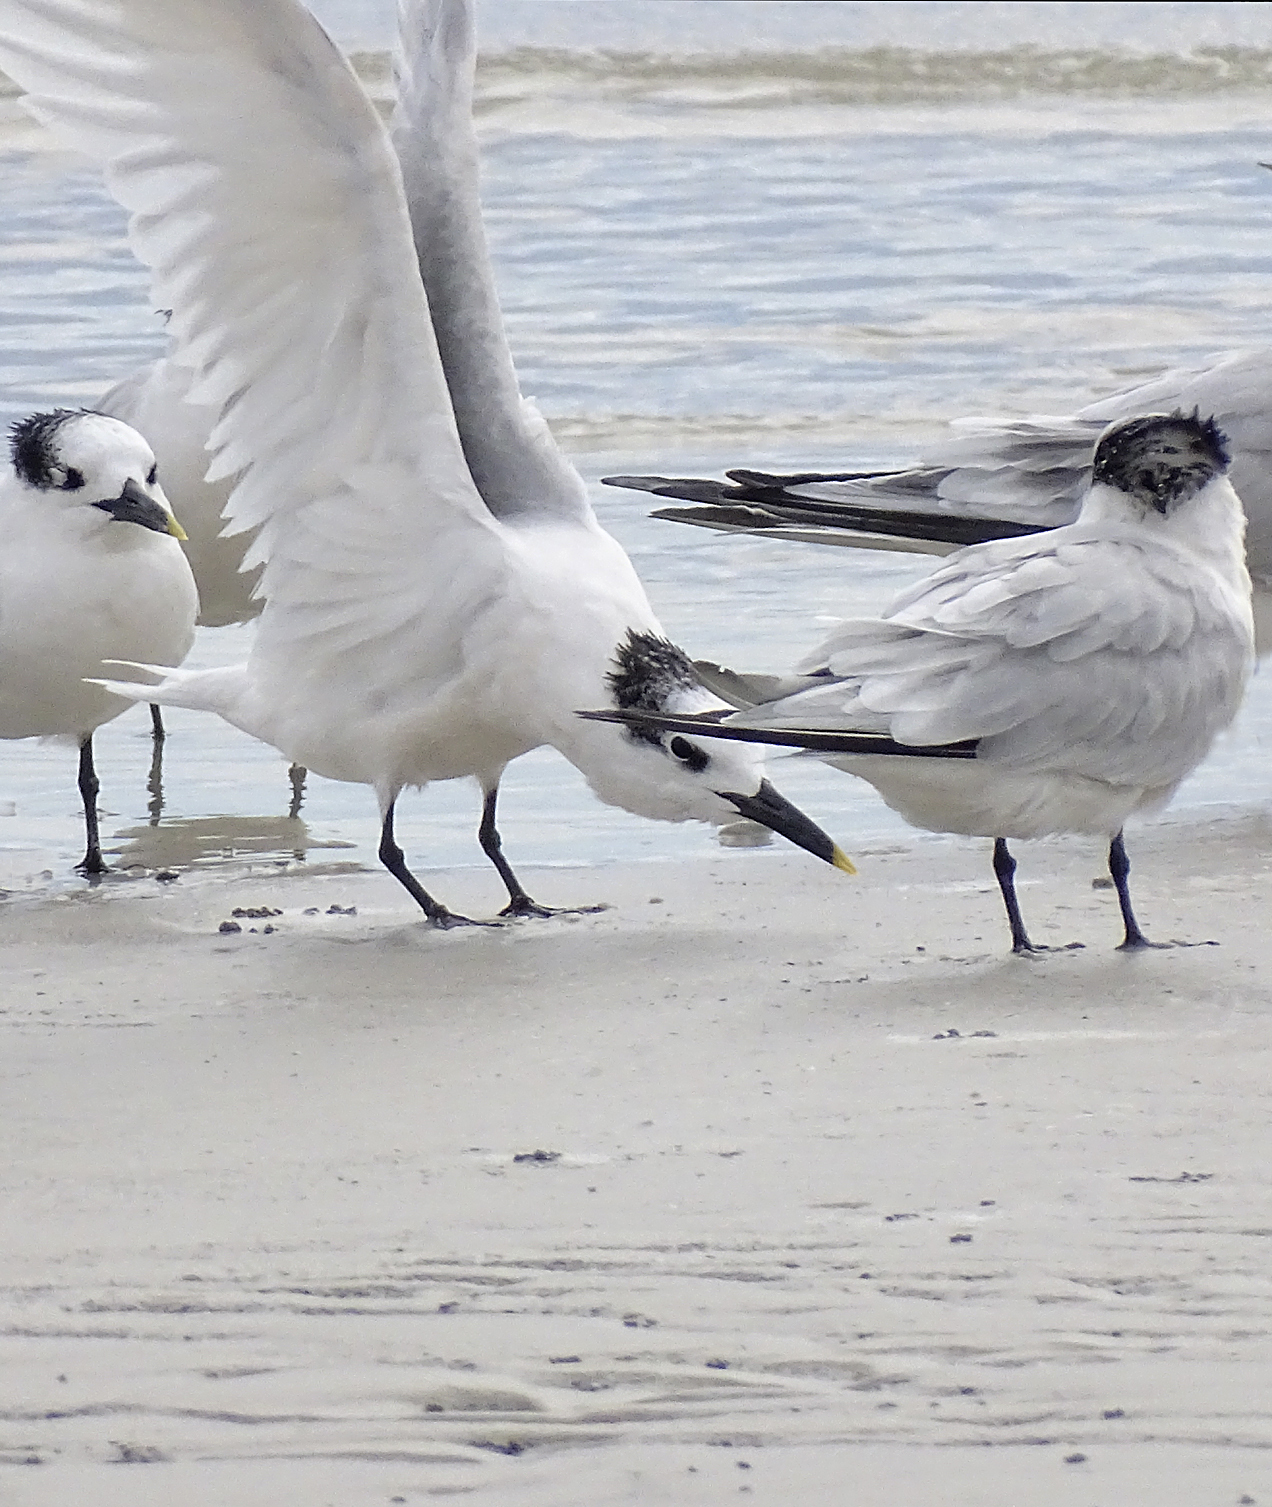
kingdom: Animalia
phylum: Chordata
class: Aves
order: Charadriiformes
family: Laridae
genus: Thalasseus
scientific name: Thalasseus sandvicensis
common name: Sandwich tern
